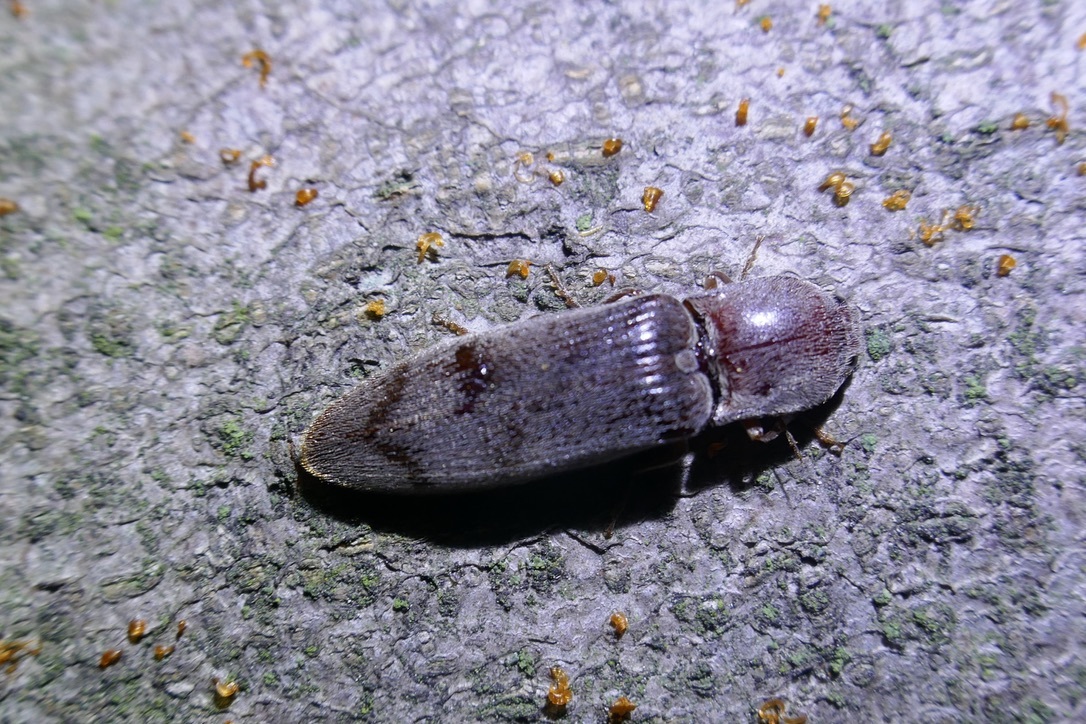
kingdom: Animalia
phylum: Arthropoda
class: Insecta
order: Coleoptera
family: Elateridae
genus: Stenagostus
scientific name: Stenagostus rhombeus
